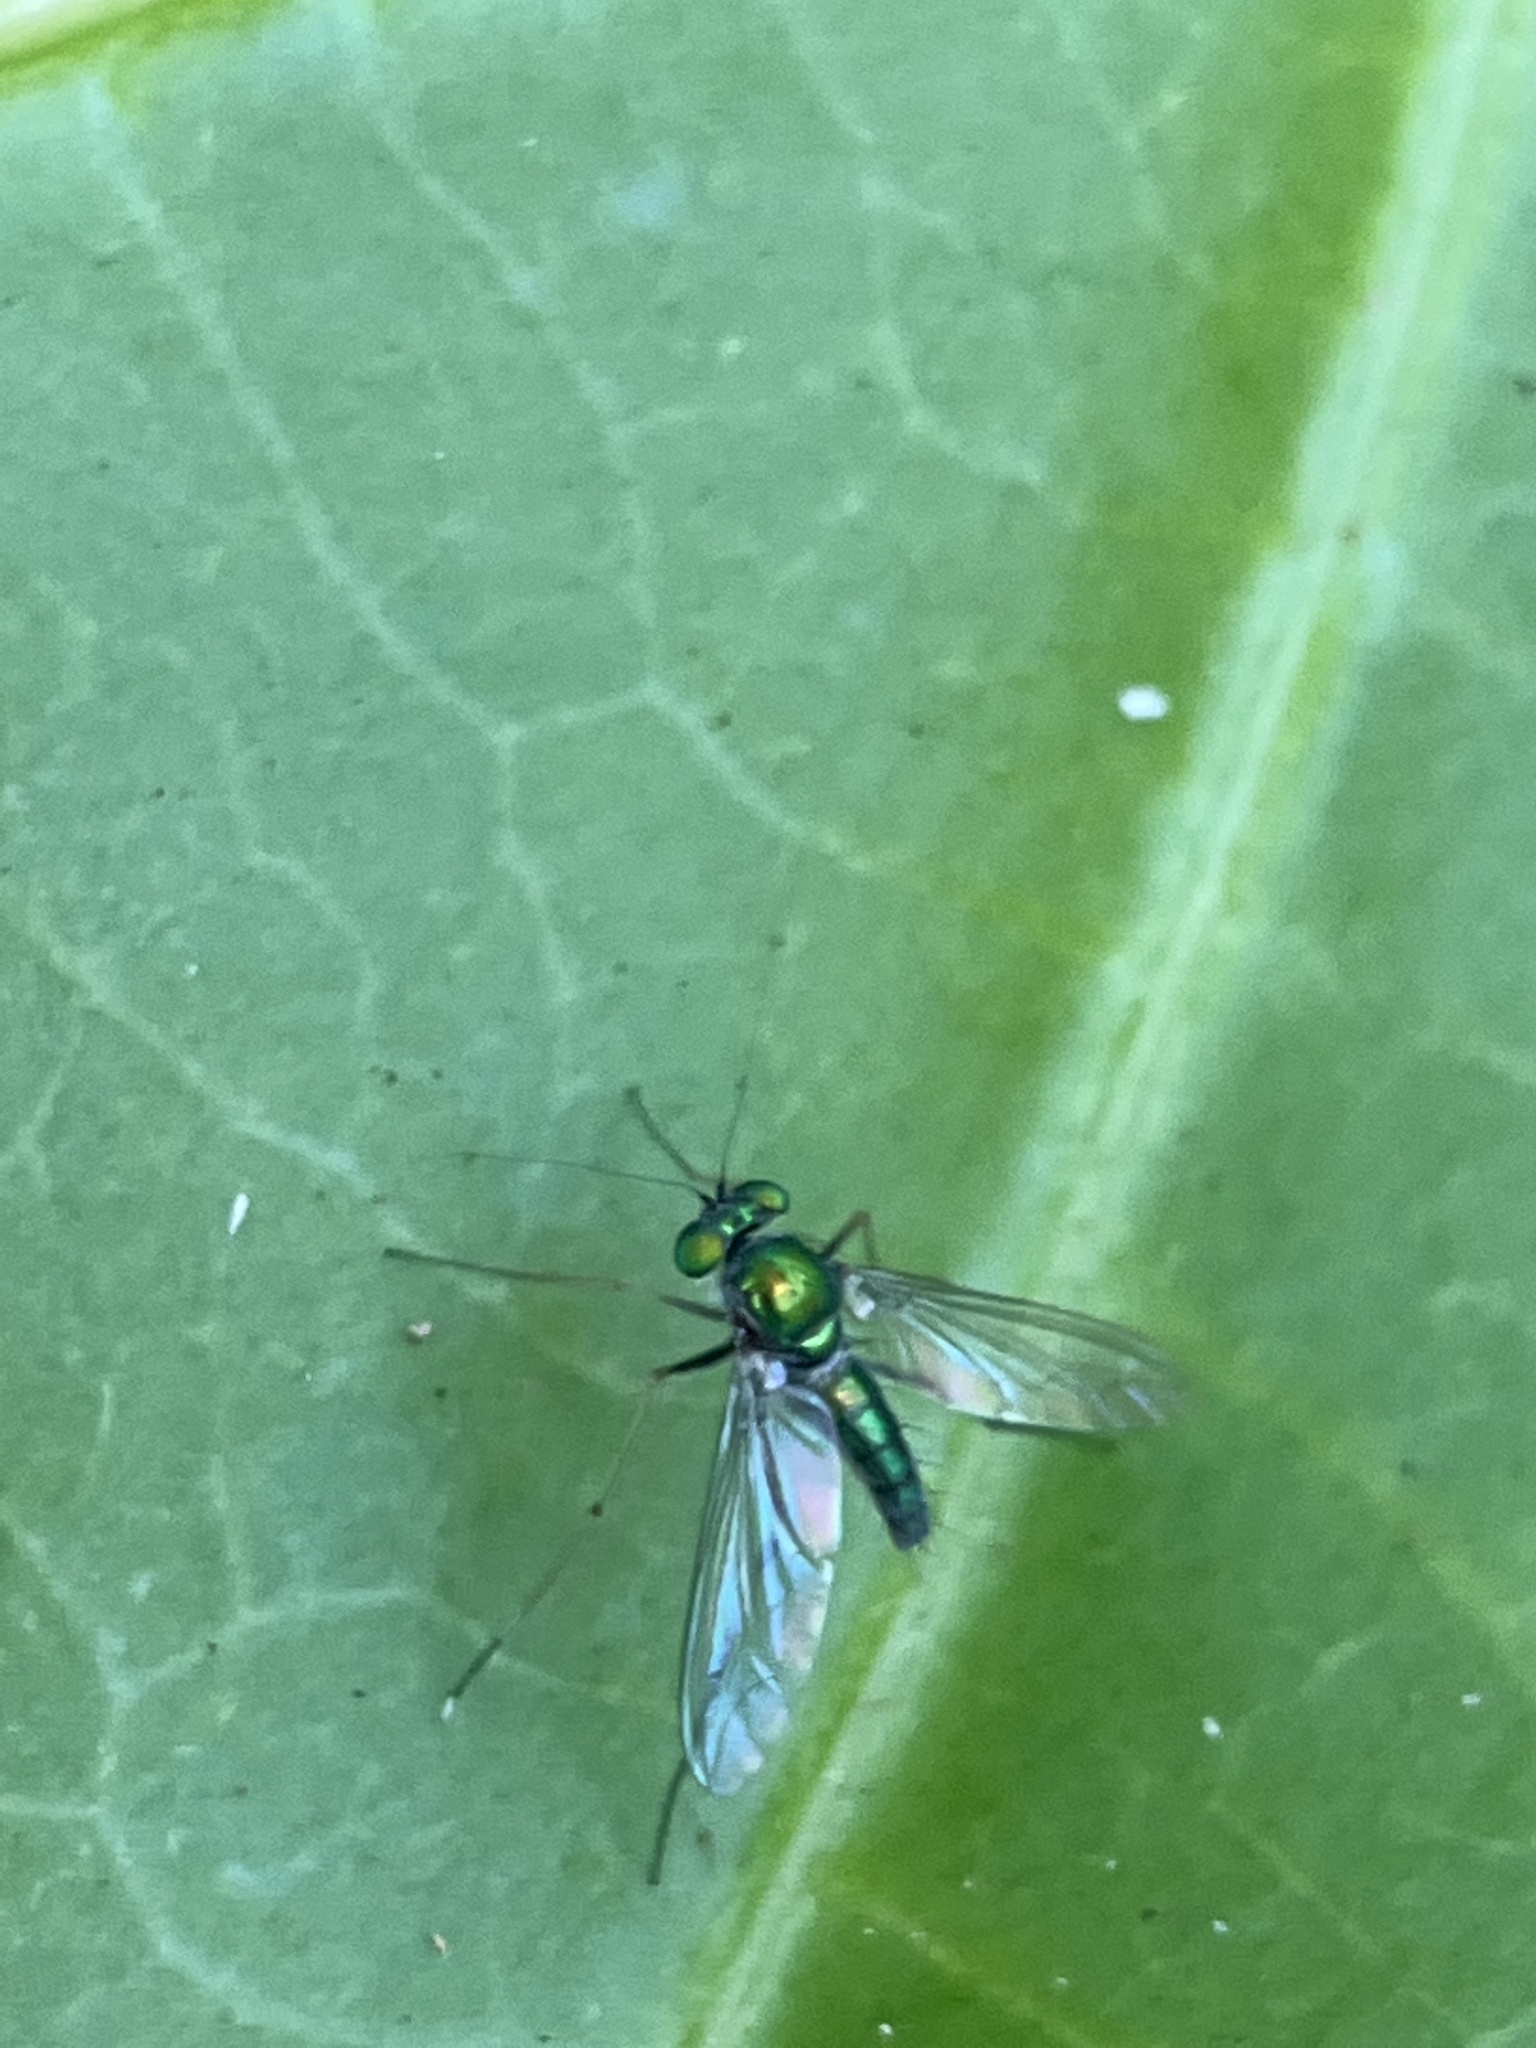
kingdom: Animalia
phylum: Arthropoda
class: Insecta
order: Diptera
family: Dolichopodidae
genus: Chrysosoma
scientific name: Chrysosoma leucopogon
